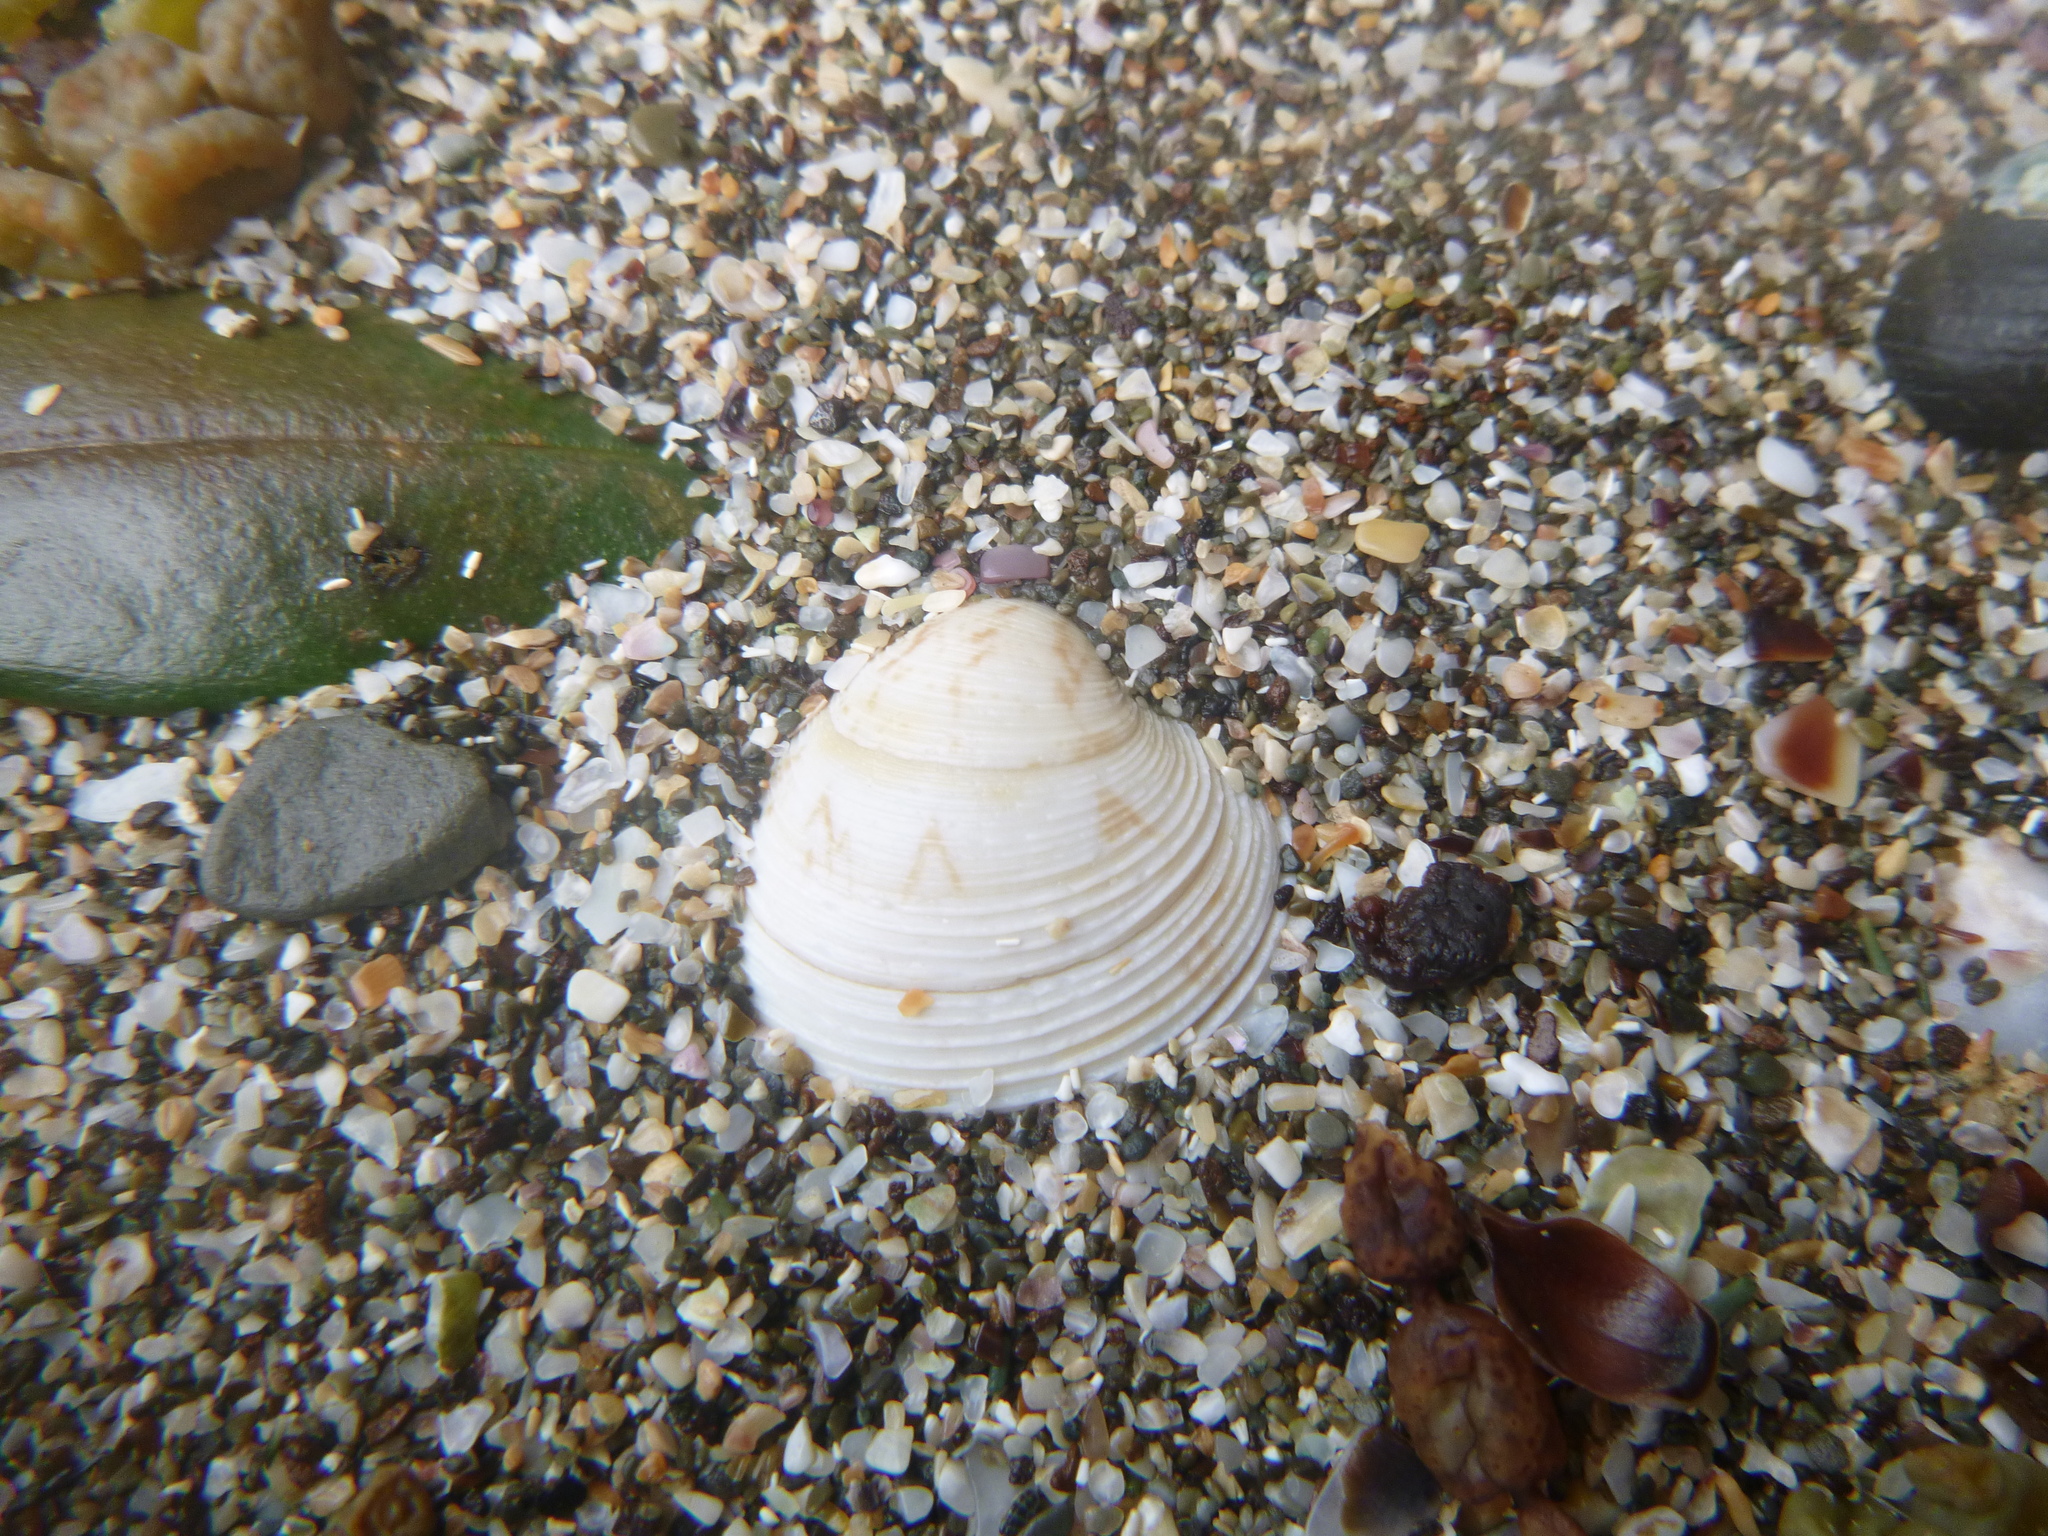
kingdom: Animalia
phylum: Mollusca
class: Bivalvia
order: Venerida
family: Veneridae
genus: Tawera
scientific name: Tawera spissa
